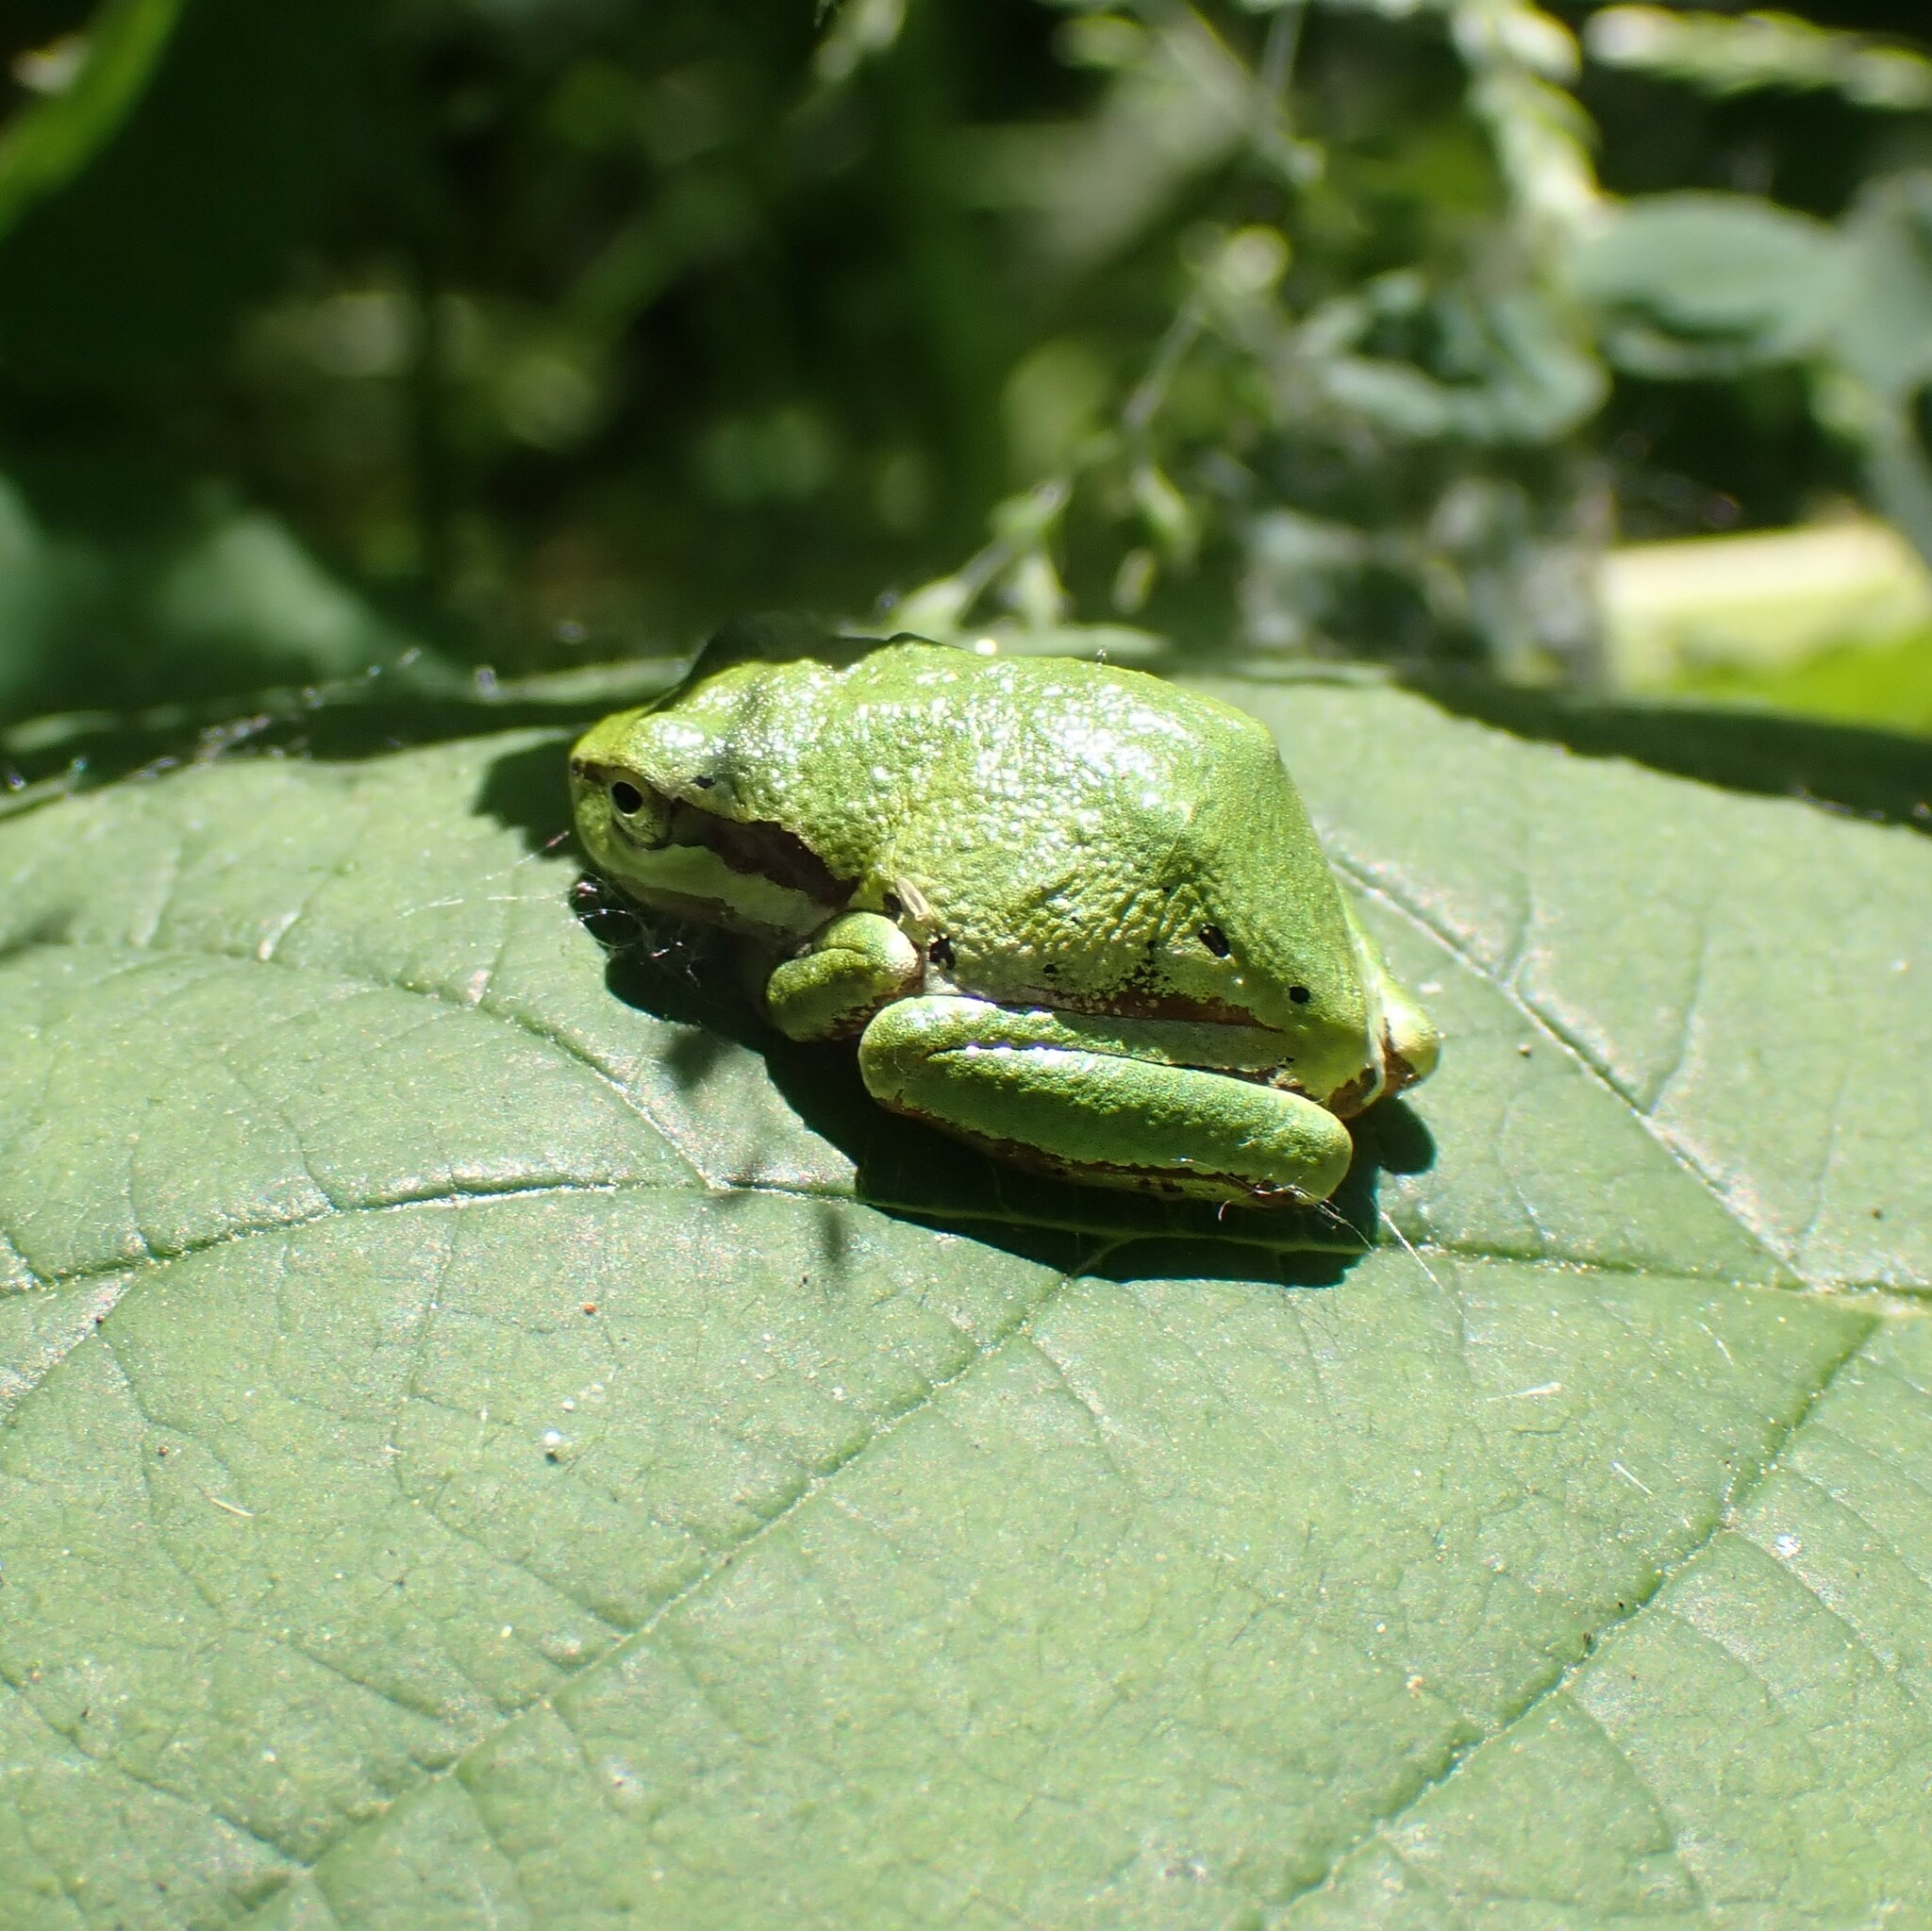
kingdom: Animalia
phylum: Chordata
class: Amphibia
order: Anura
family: Hylidae
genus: Pseudacris
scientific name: Pseudacris regilla
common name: Pacific chorus frog
